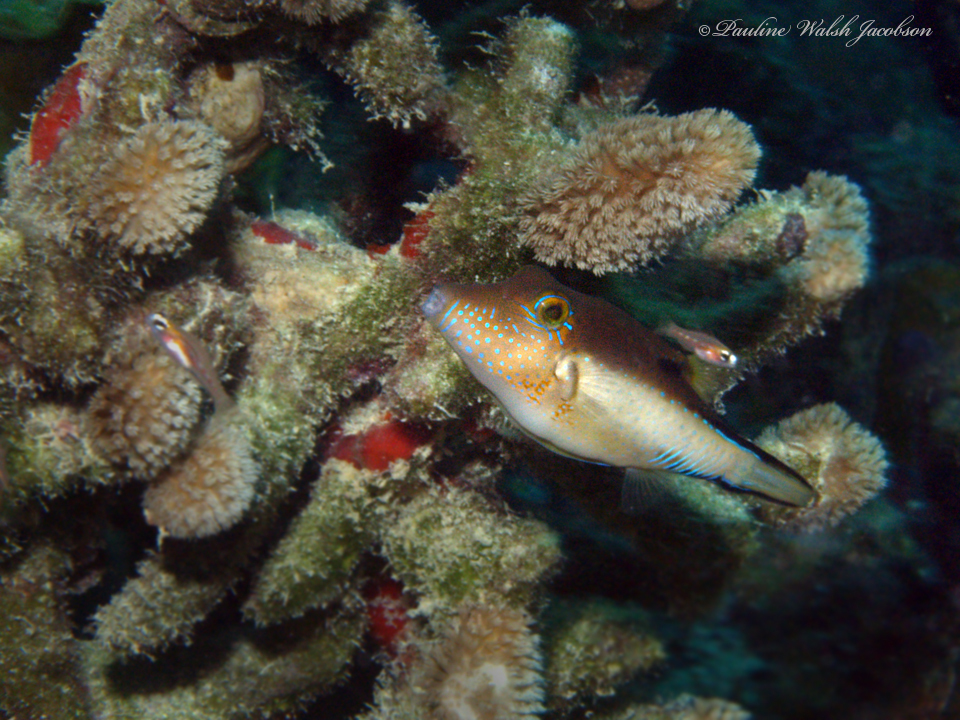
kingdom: Animalia
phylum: Chordata
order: Tetraodontiformes
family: Tetraodontidae
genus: Canthigaster
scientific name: Canthigaster rostrata
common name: Caribbean sharpnose-puffer
